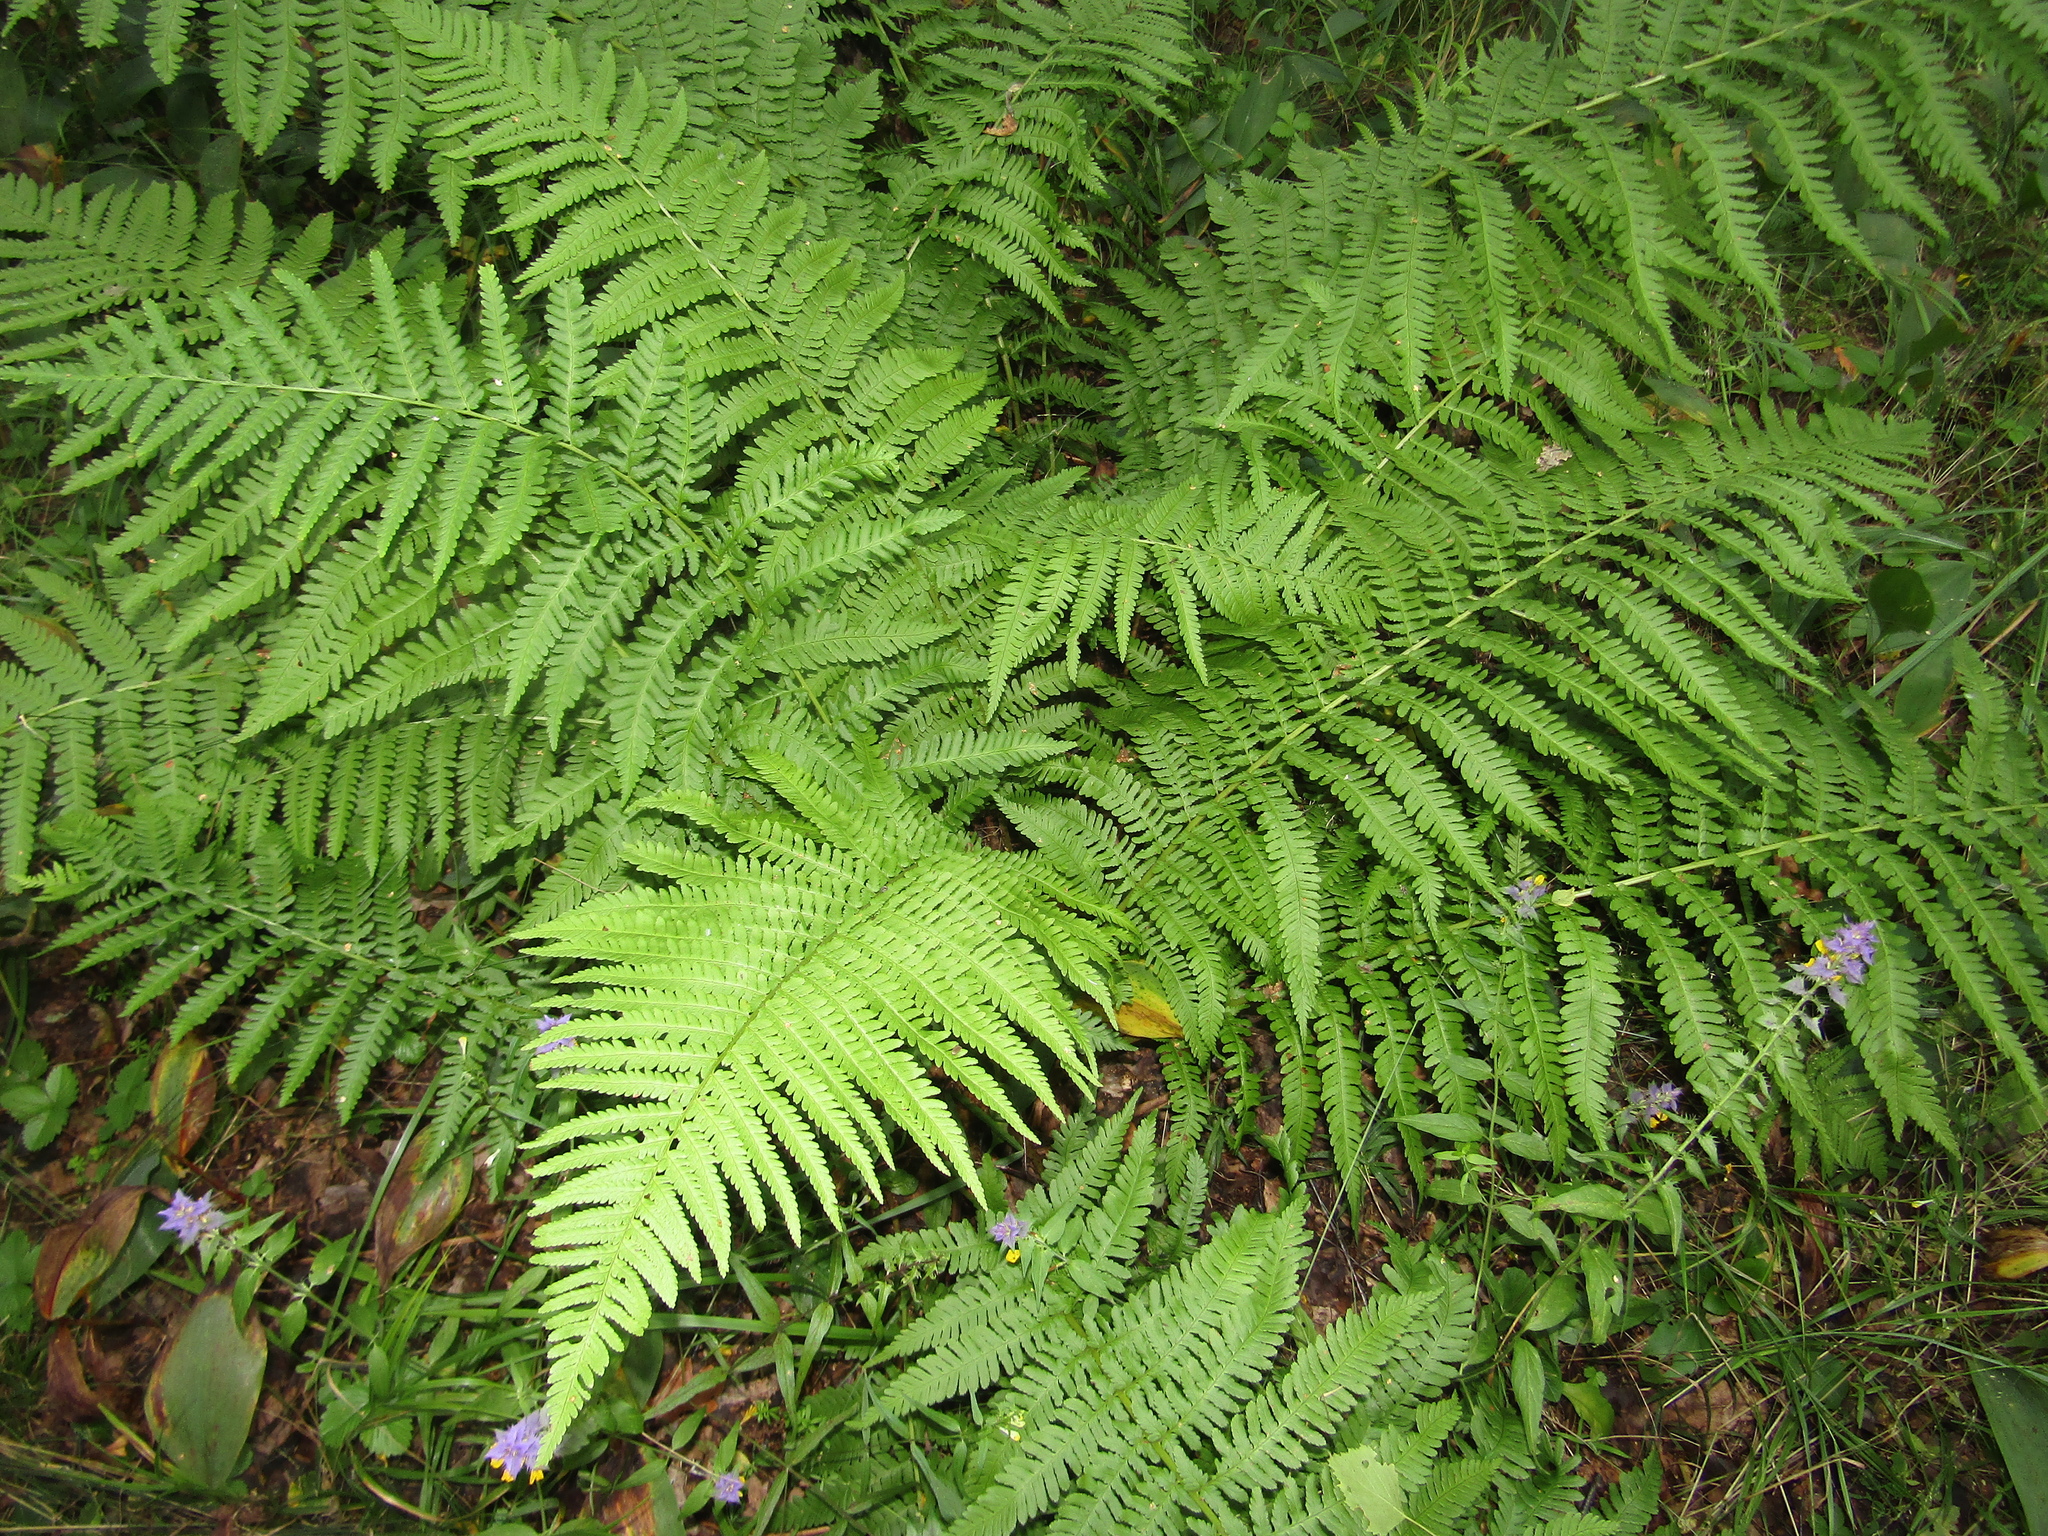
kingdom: Plantae
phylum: Tracheophyta
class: Polypodiopsida
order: Polypodiales
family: Dryopteridaceae
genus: Dryopteris
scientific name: Dryopteris filix-mas
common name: Male fern
